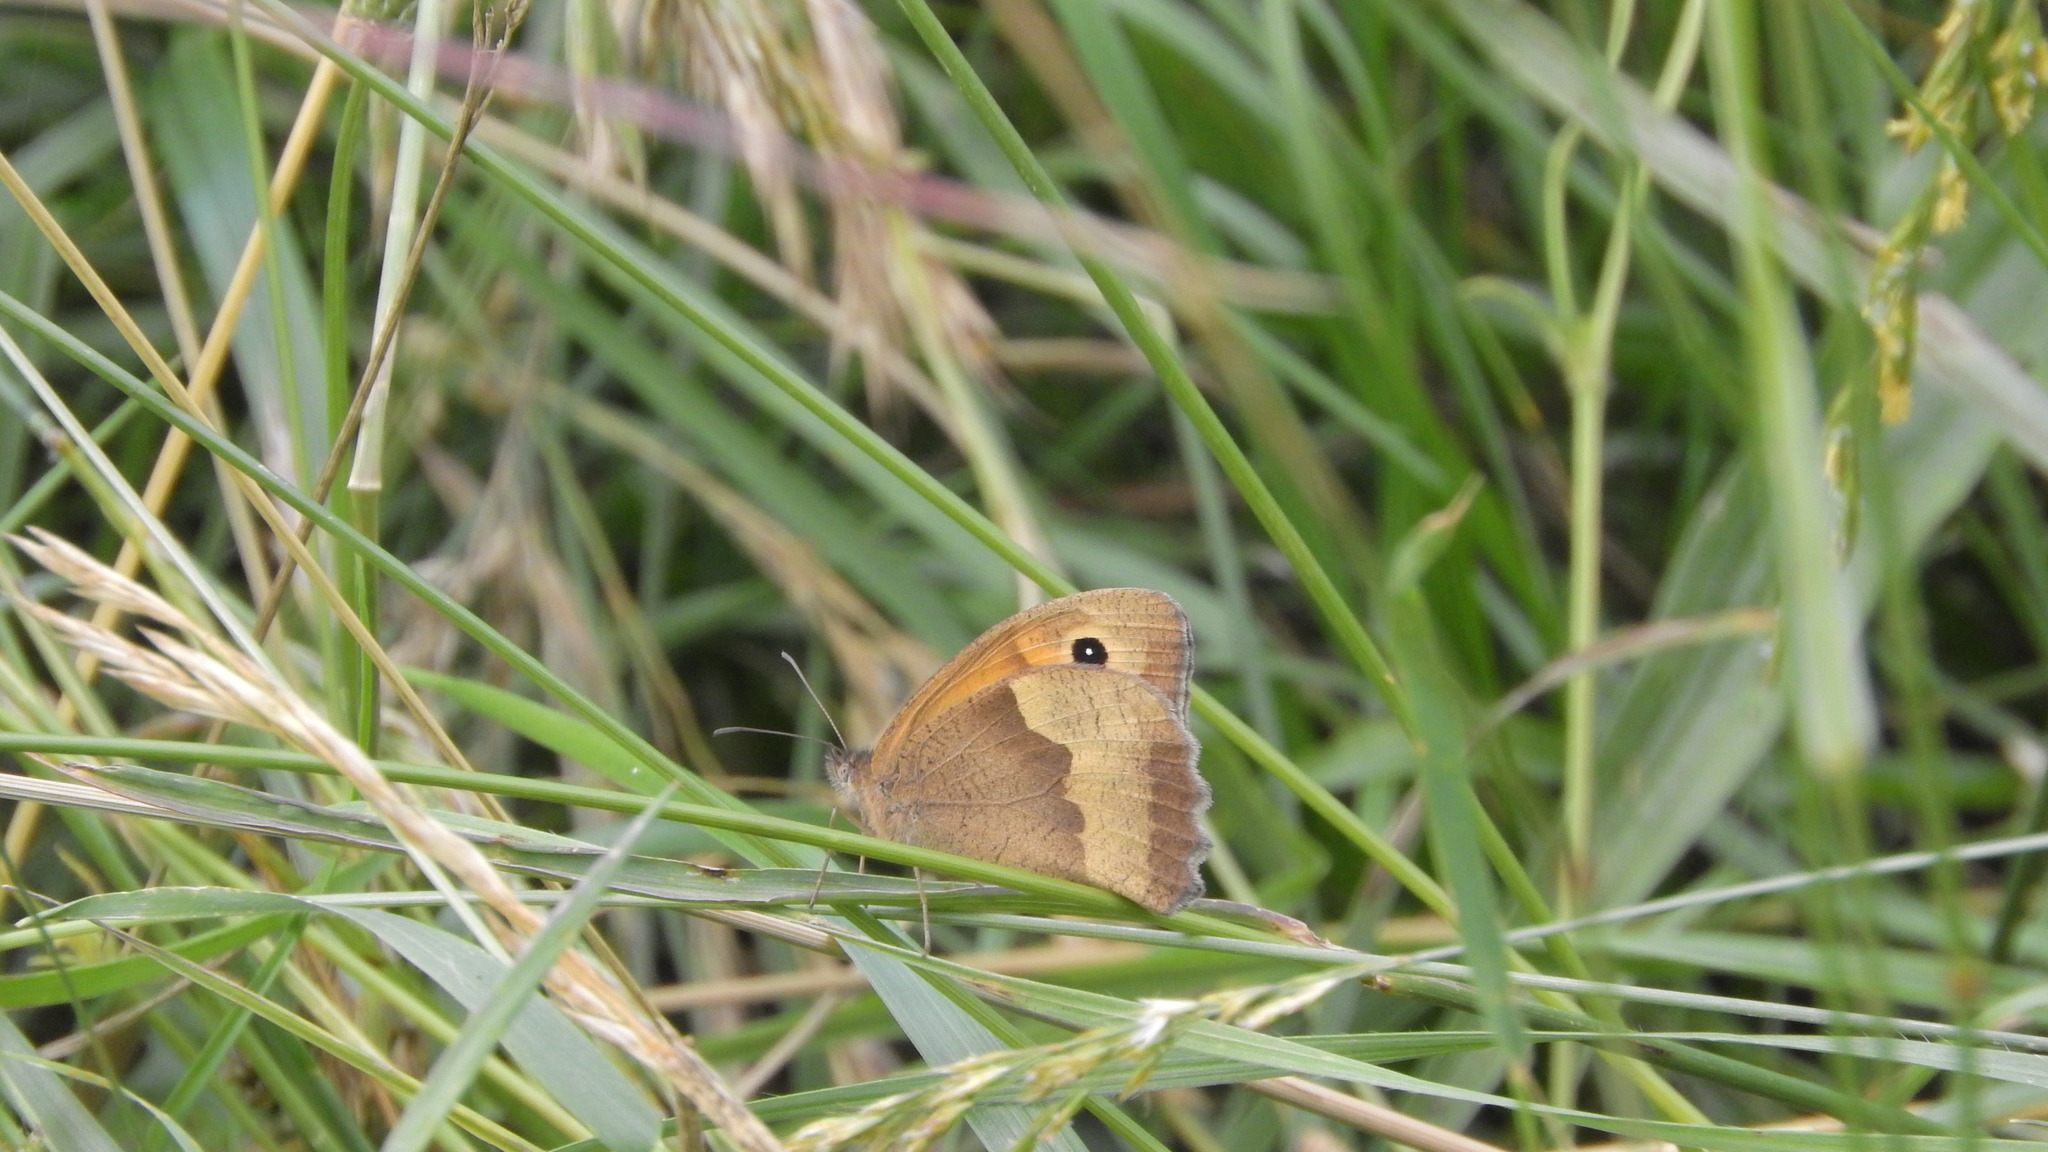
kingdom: Animalia
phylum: Arthropoda
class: Insecta
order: Lepidoptera
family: Nymphalidae
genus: Maniola
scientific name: Maniola jurtina
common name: Meadow brown
